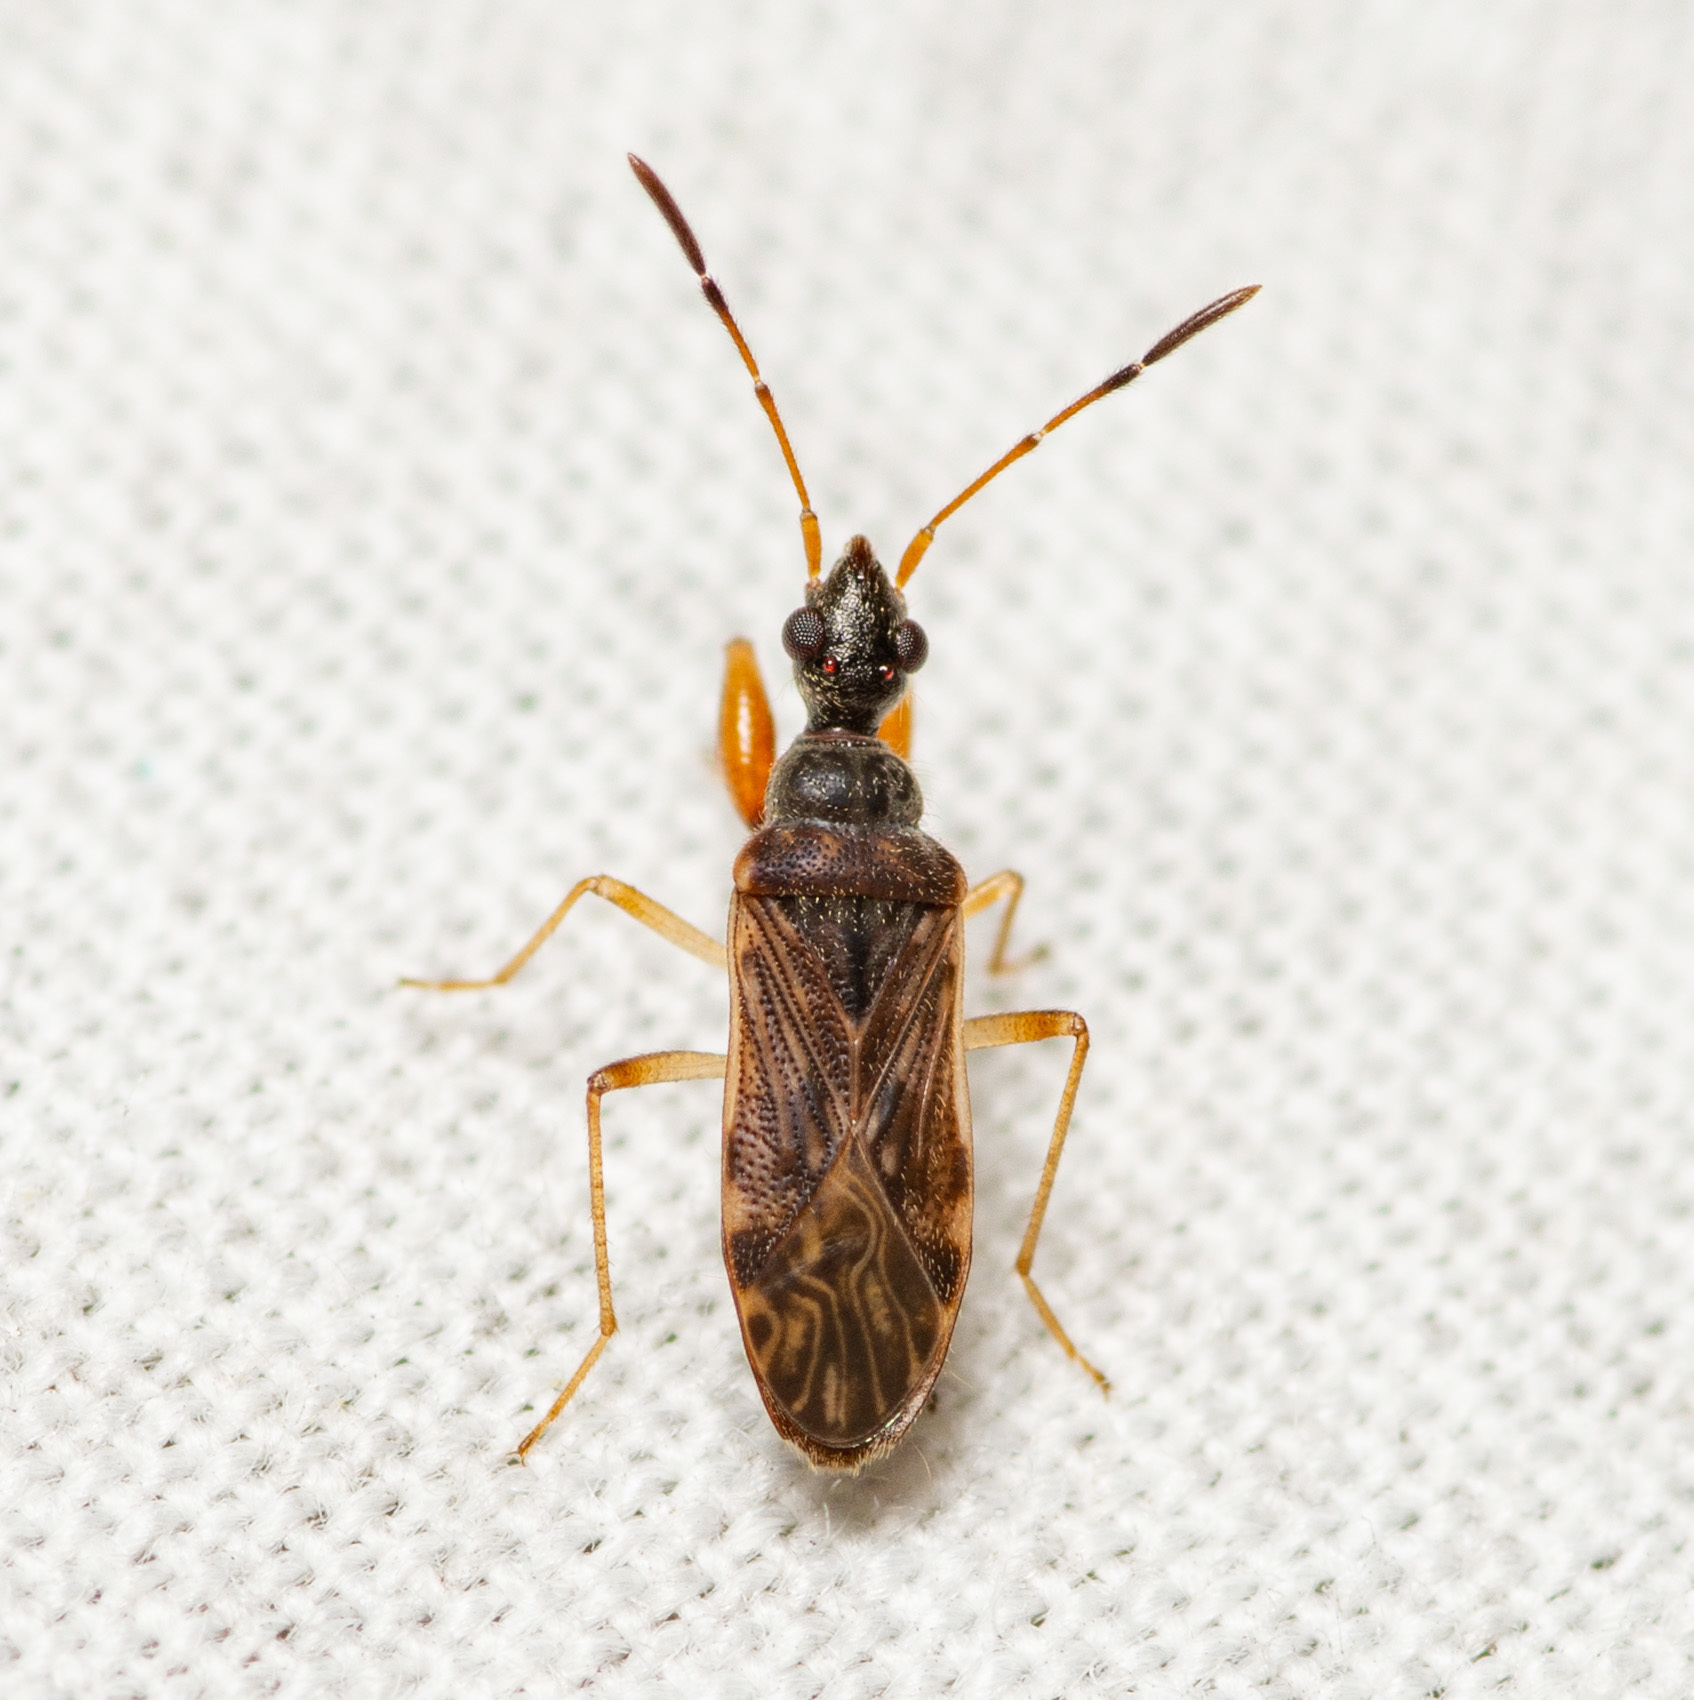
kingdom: Animalia
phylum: Arthropoda
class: Insecta
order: Hemiptera
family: Rhyparochromidae
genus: Heraeus
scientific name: Heraeus plebejus
